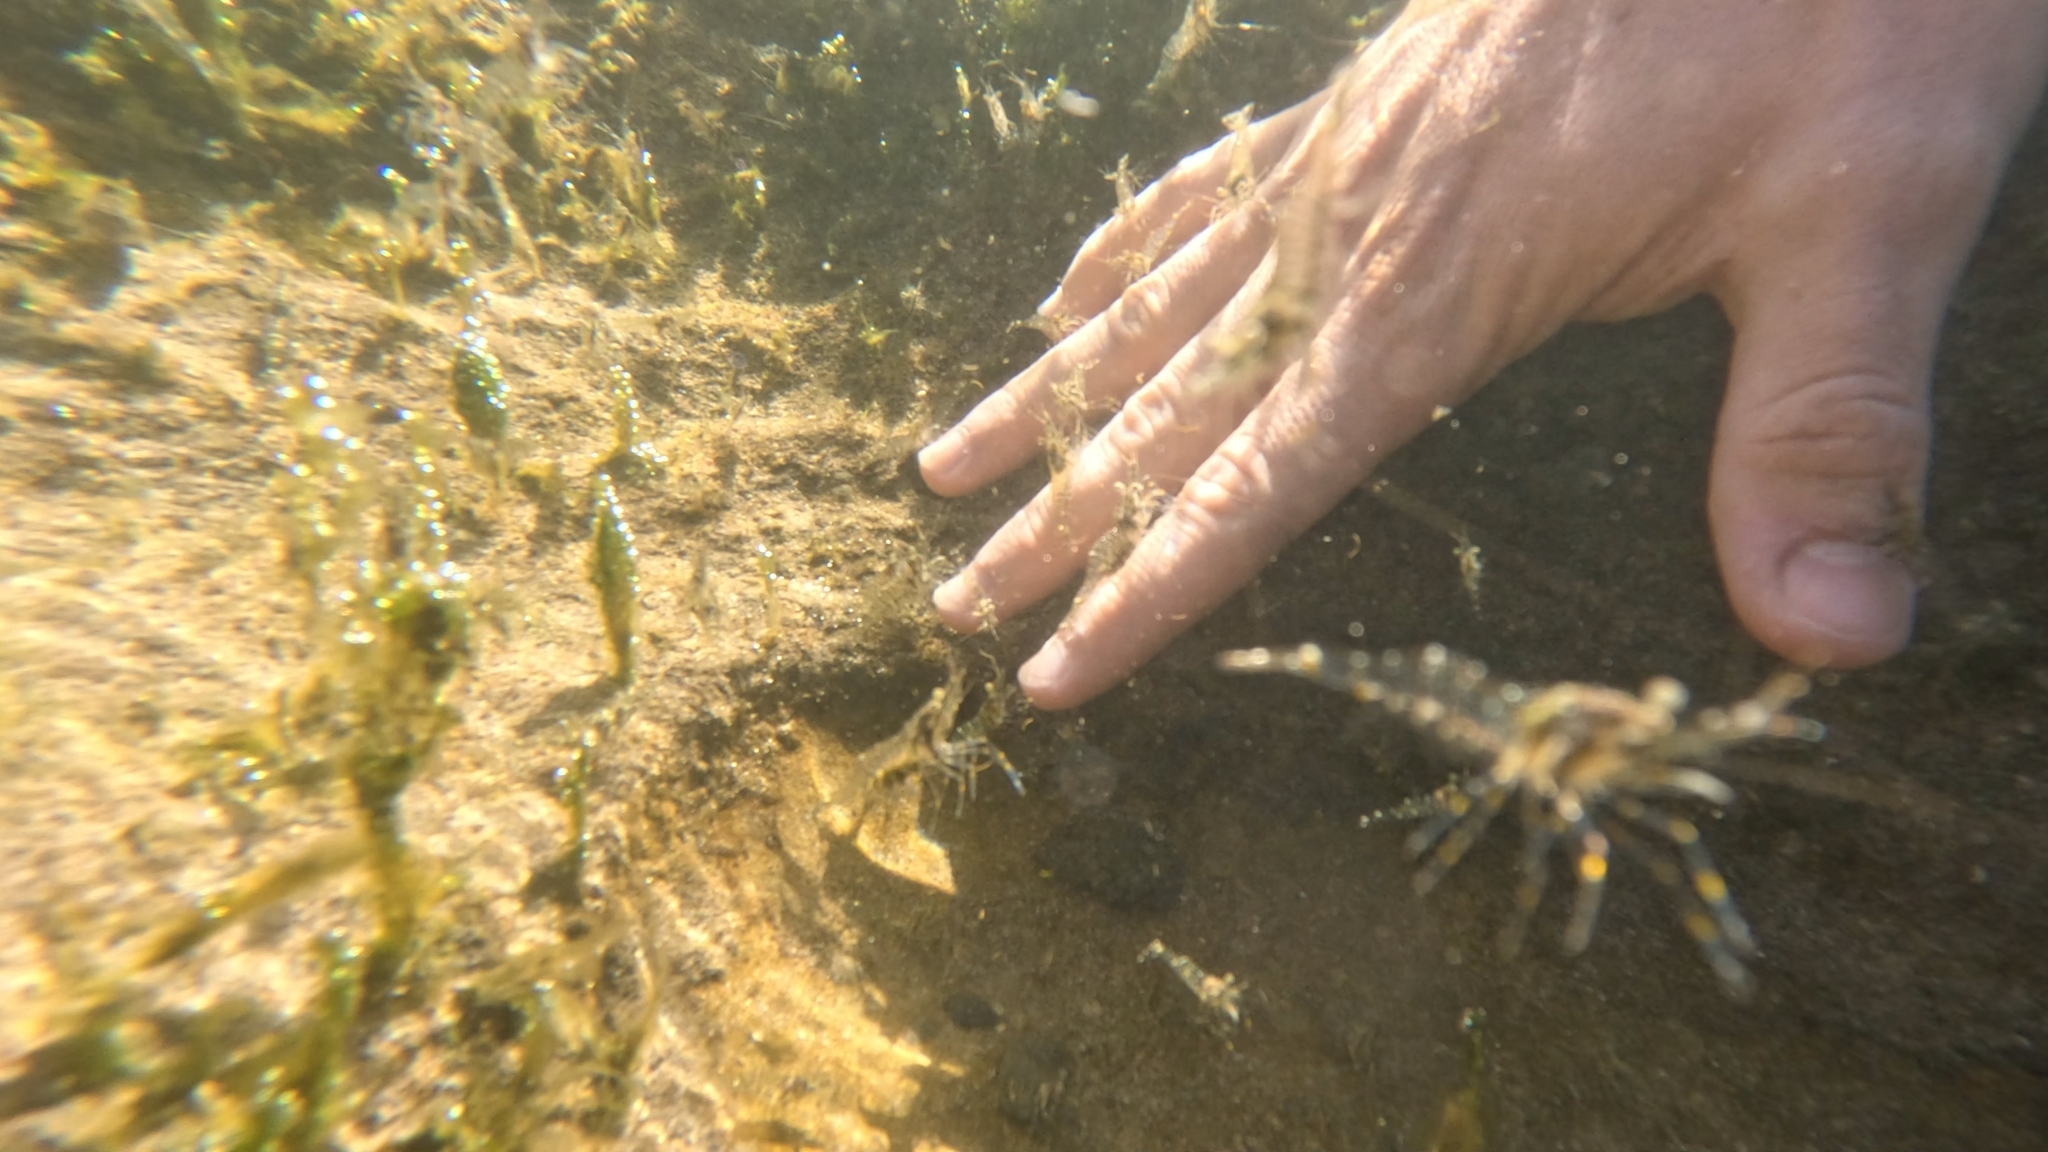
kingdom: Animalia
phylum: Arthropoda
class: Malacostraca
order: Decapoda
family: Palaemonidae
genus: Palaemon
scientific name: Palaemon elegans
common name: Grass prawm
